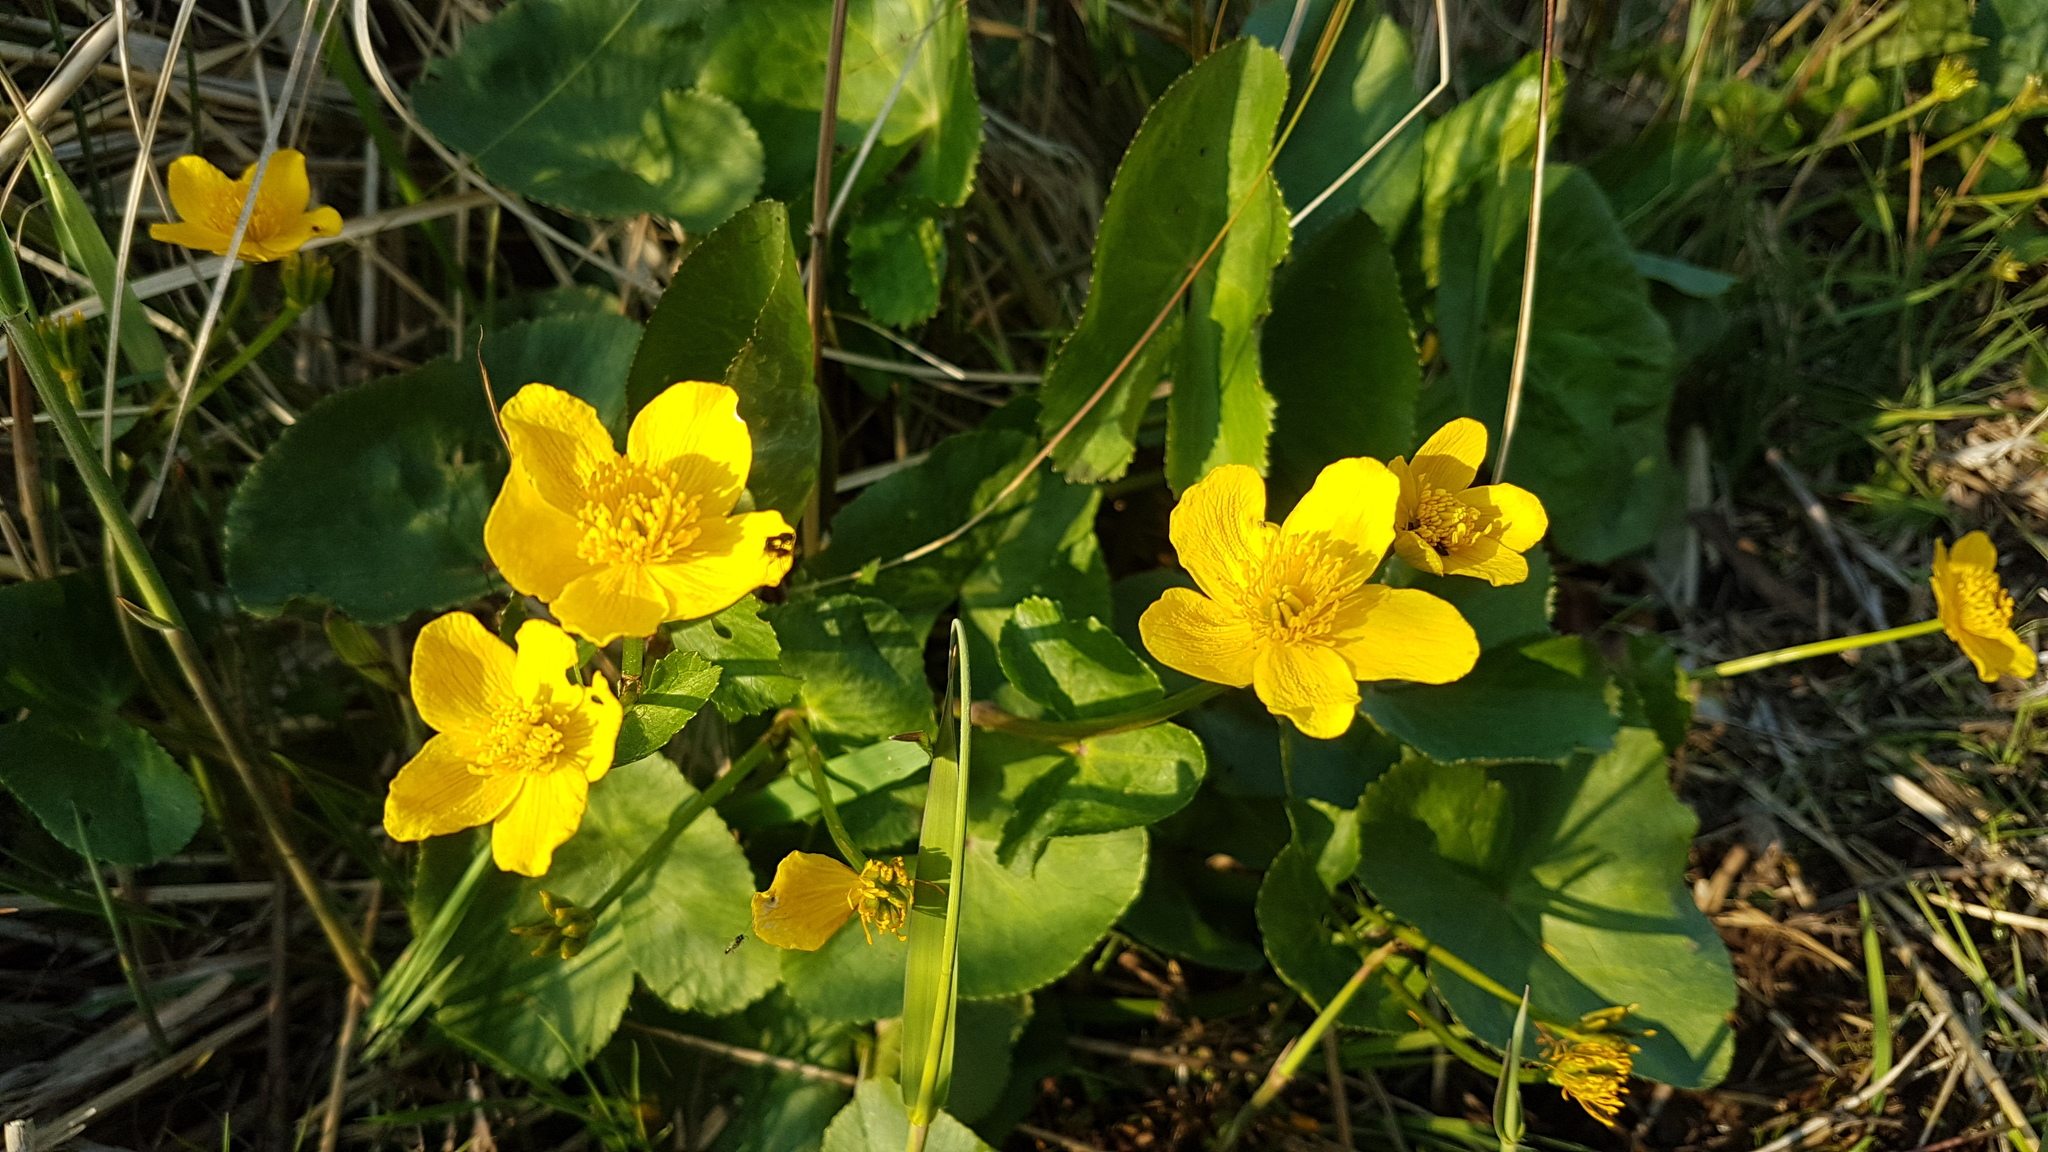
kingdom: Plantae
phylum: Tracheophyta
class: Magnoliopsida
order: Ranunculales
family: Ranunculaceae
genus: Caltha
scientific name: Caltha palustris
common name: Marsh marigold
